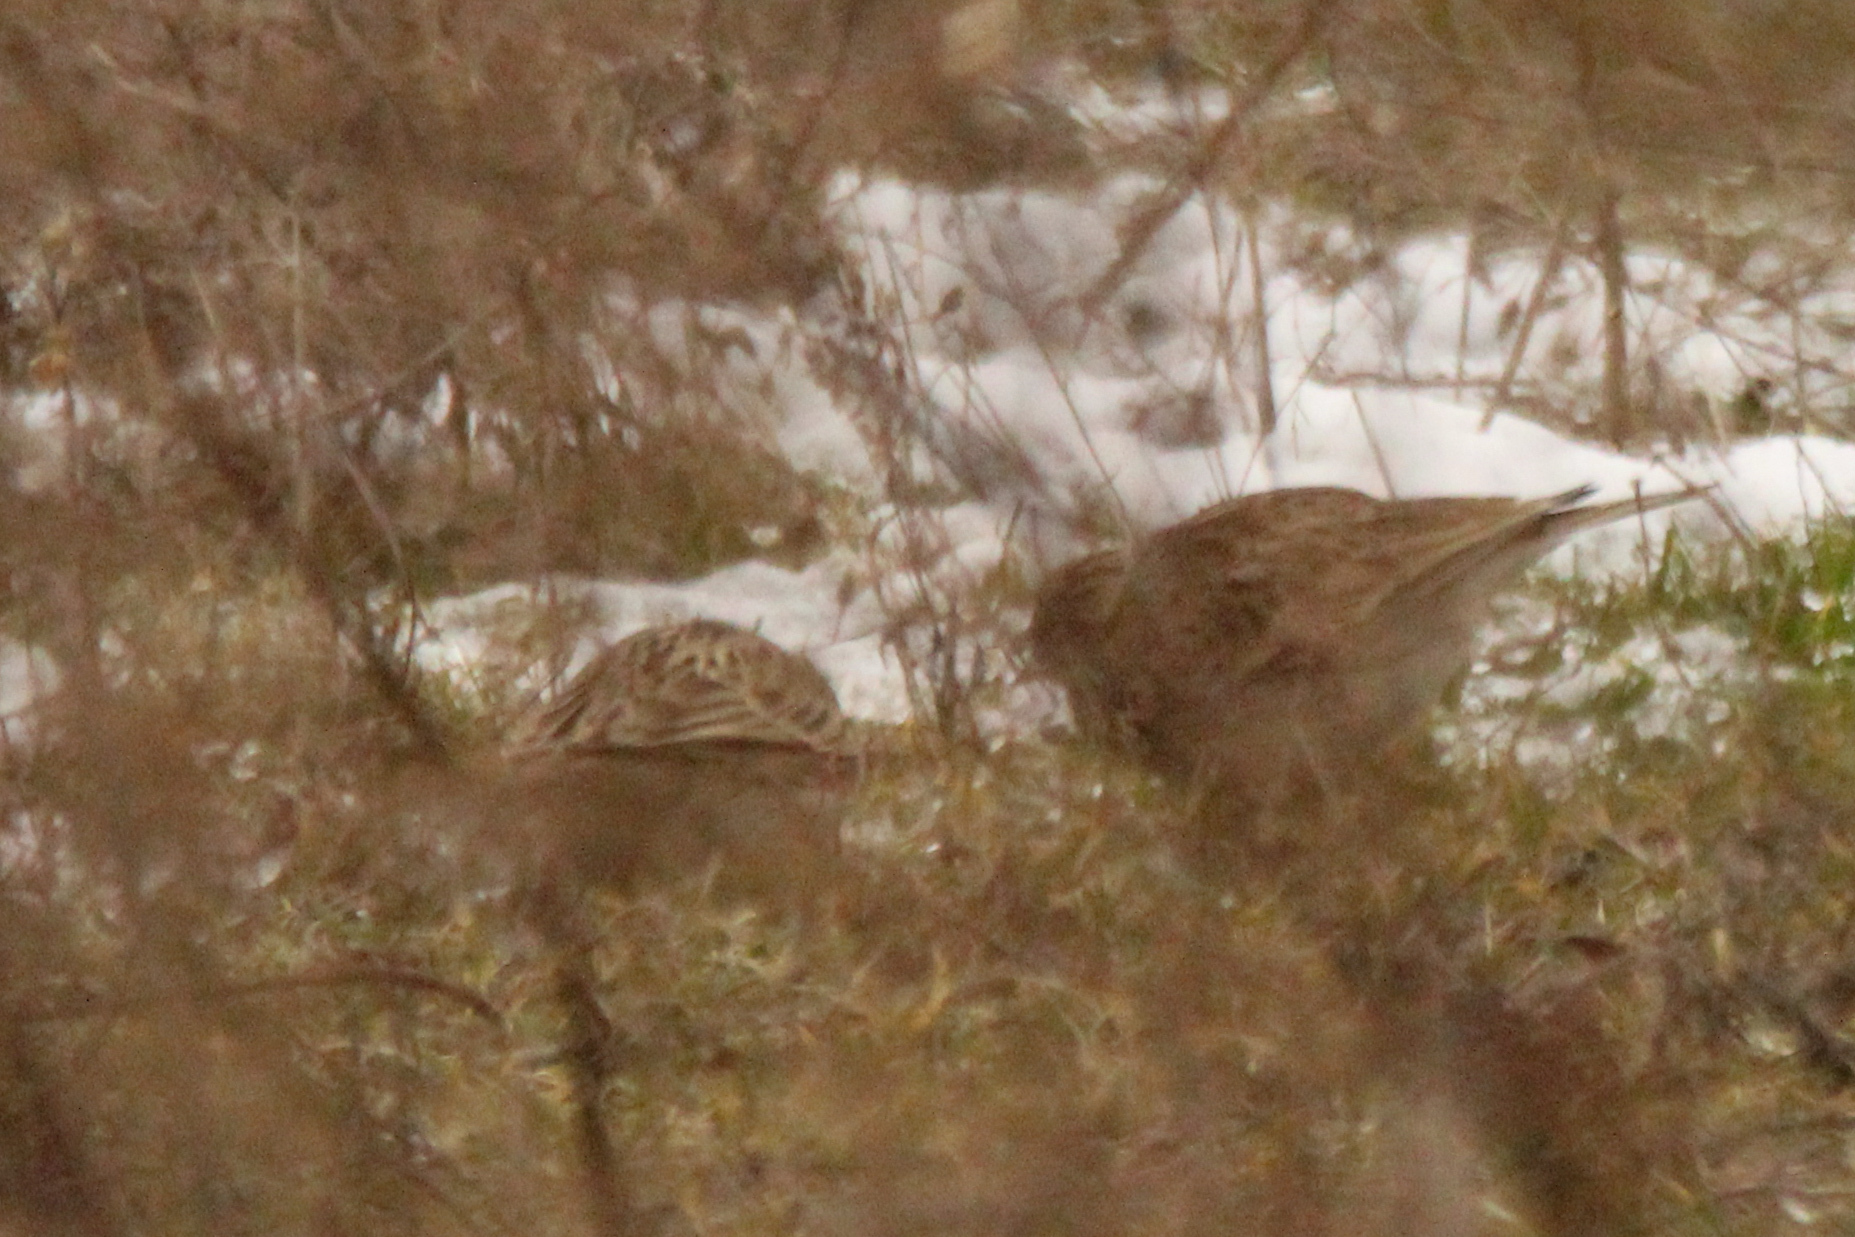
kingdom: Animalia
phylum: Chordata
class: Aves
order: Passeriformes
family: Alaudidae
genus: Lullula
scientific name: Lullula arborea
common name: Woodlark
